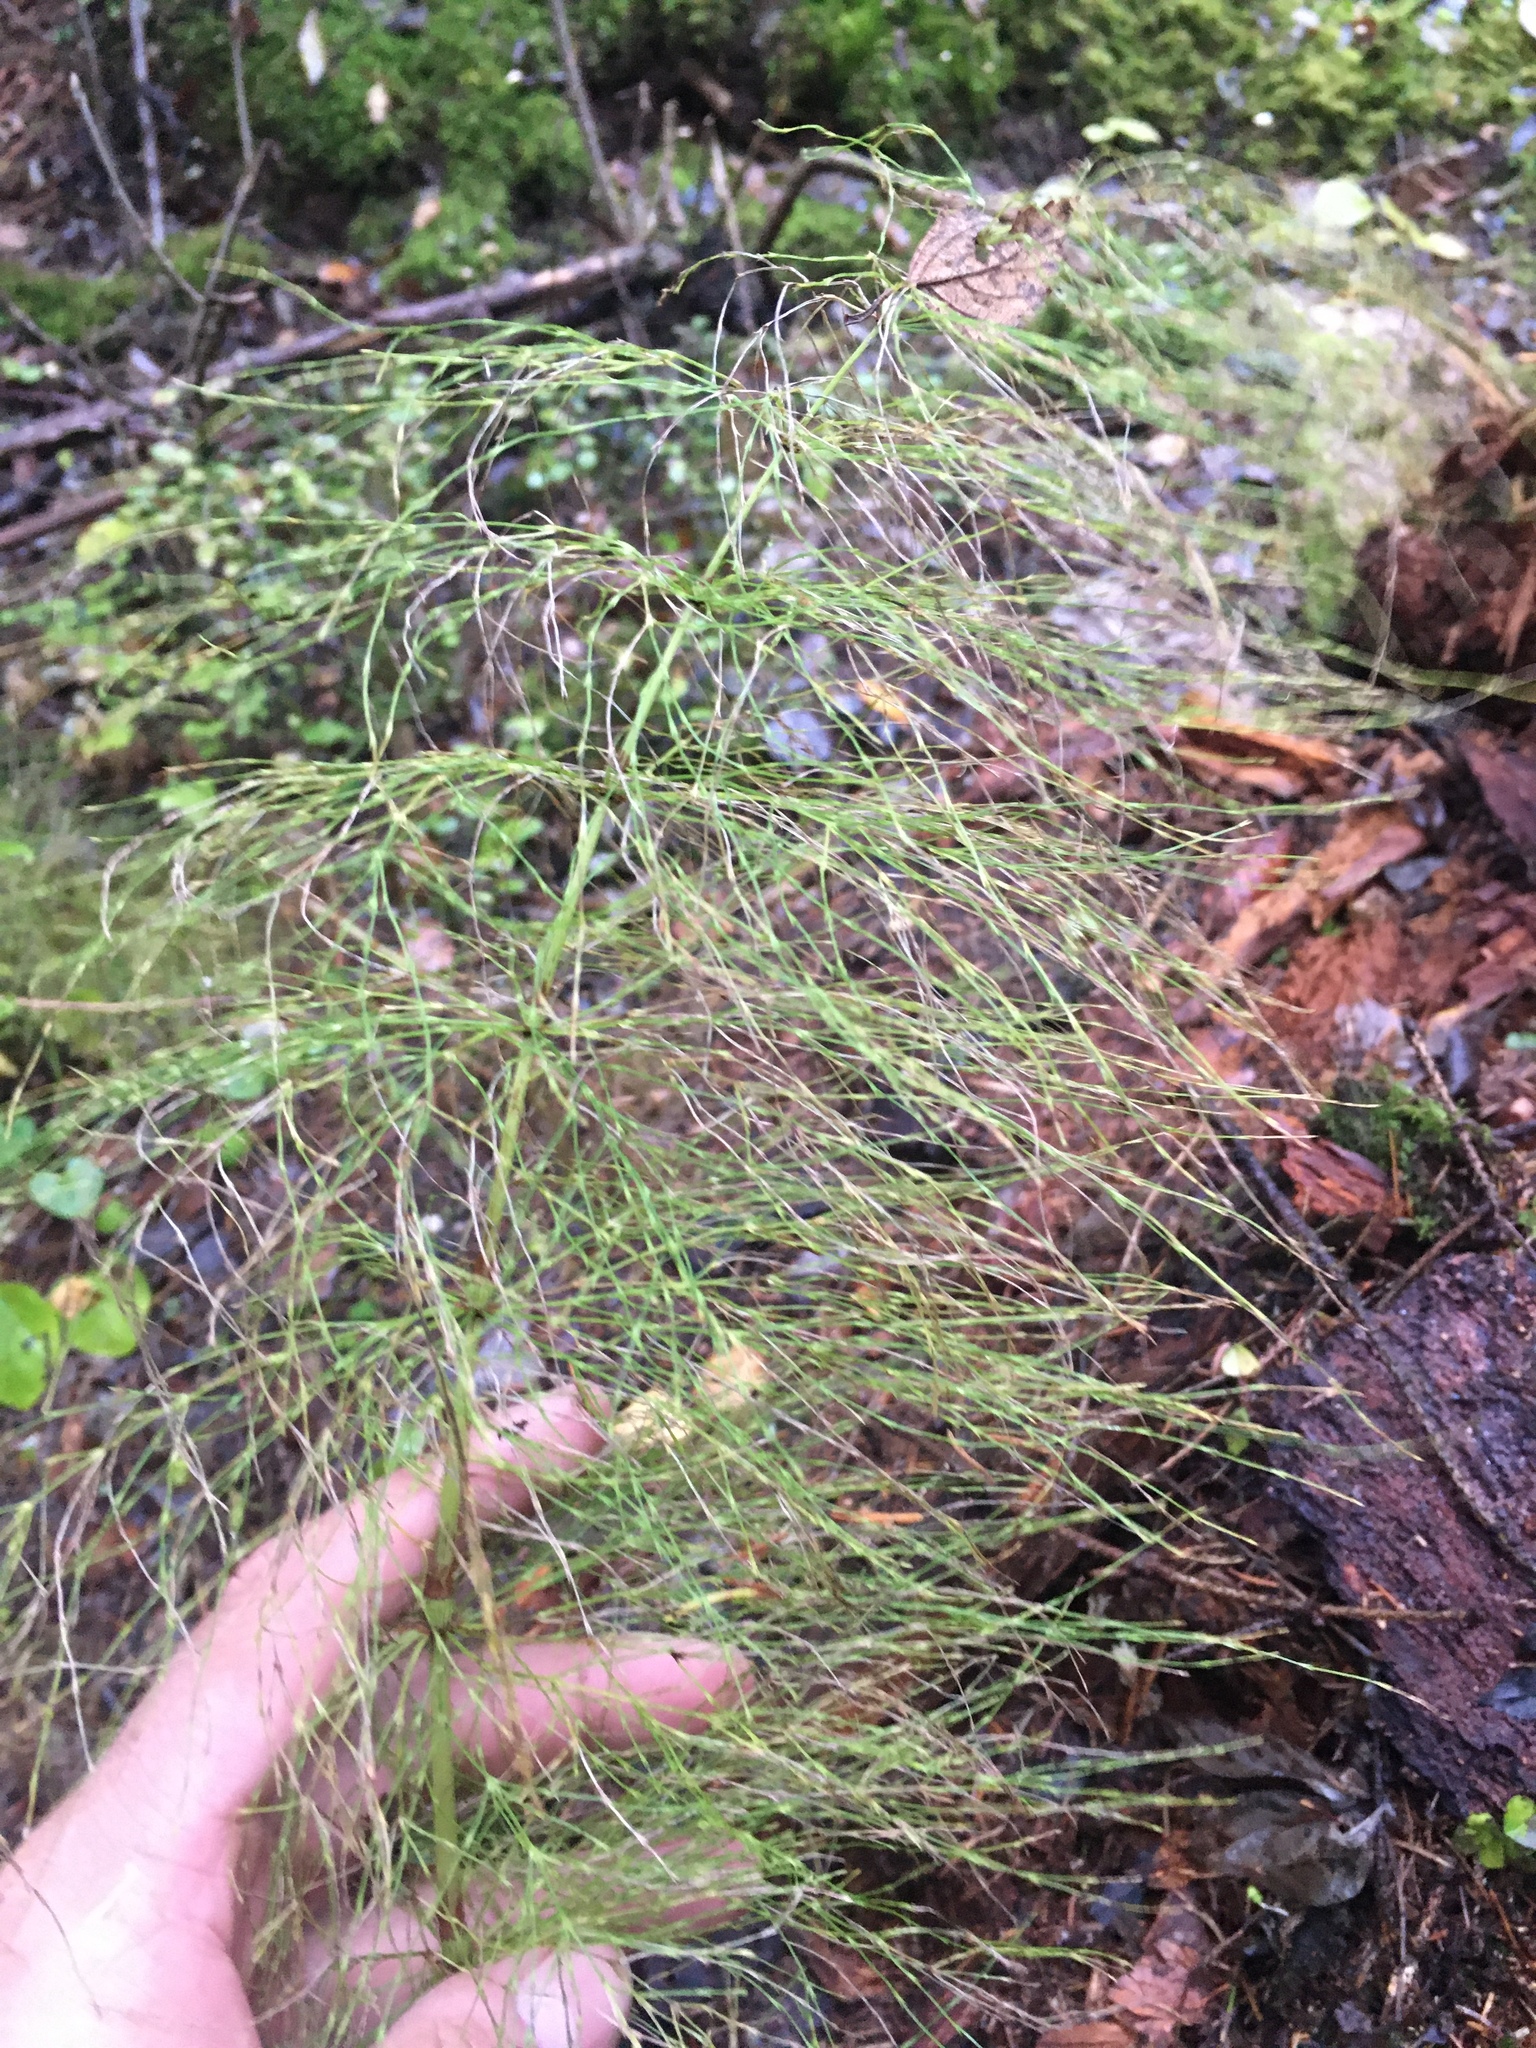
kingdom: Plantae
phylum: Tracheophyta
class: Polypodiopsida
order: Equisetales
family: Equisetaceae
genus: Equisetum
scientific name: Equisetum sylvaticum
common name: Wood horsetail
